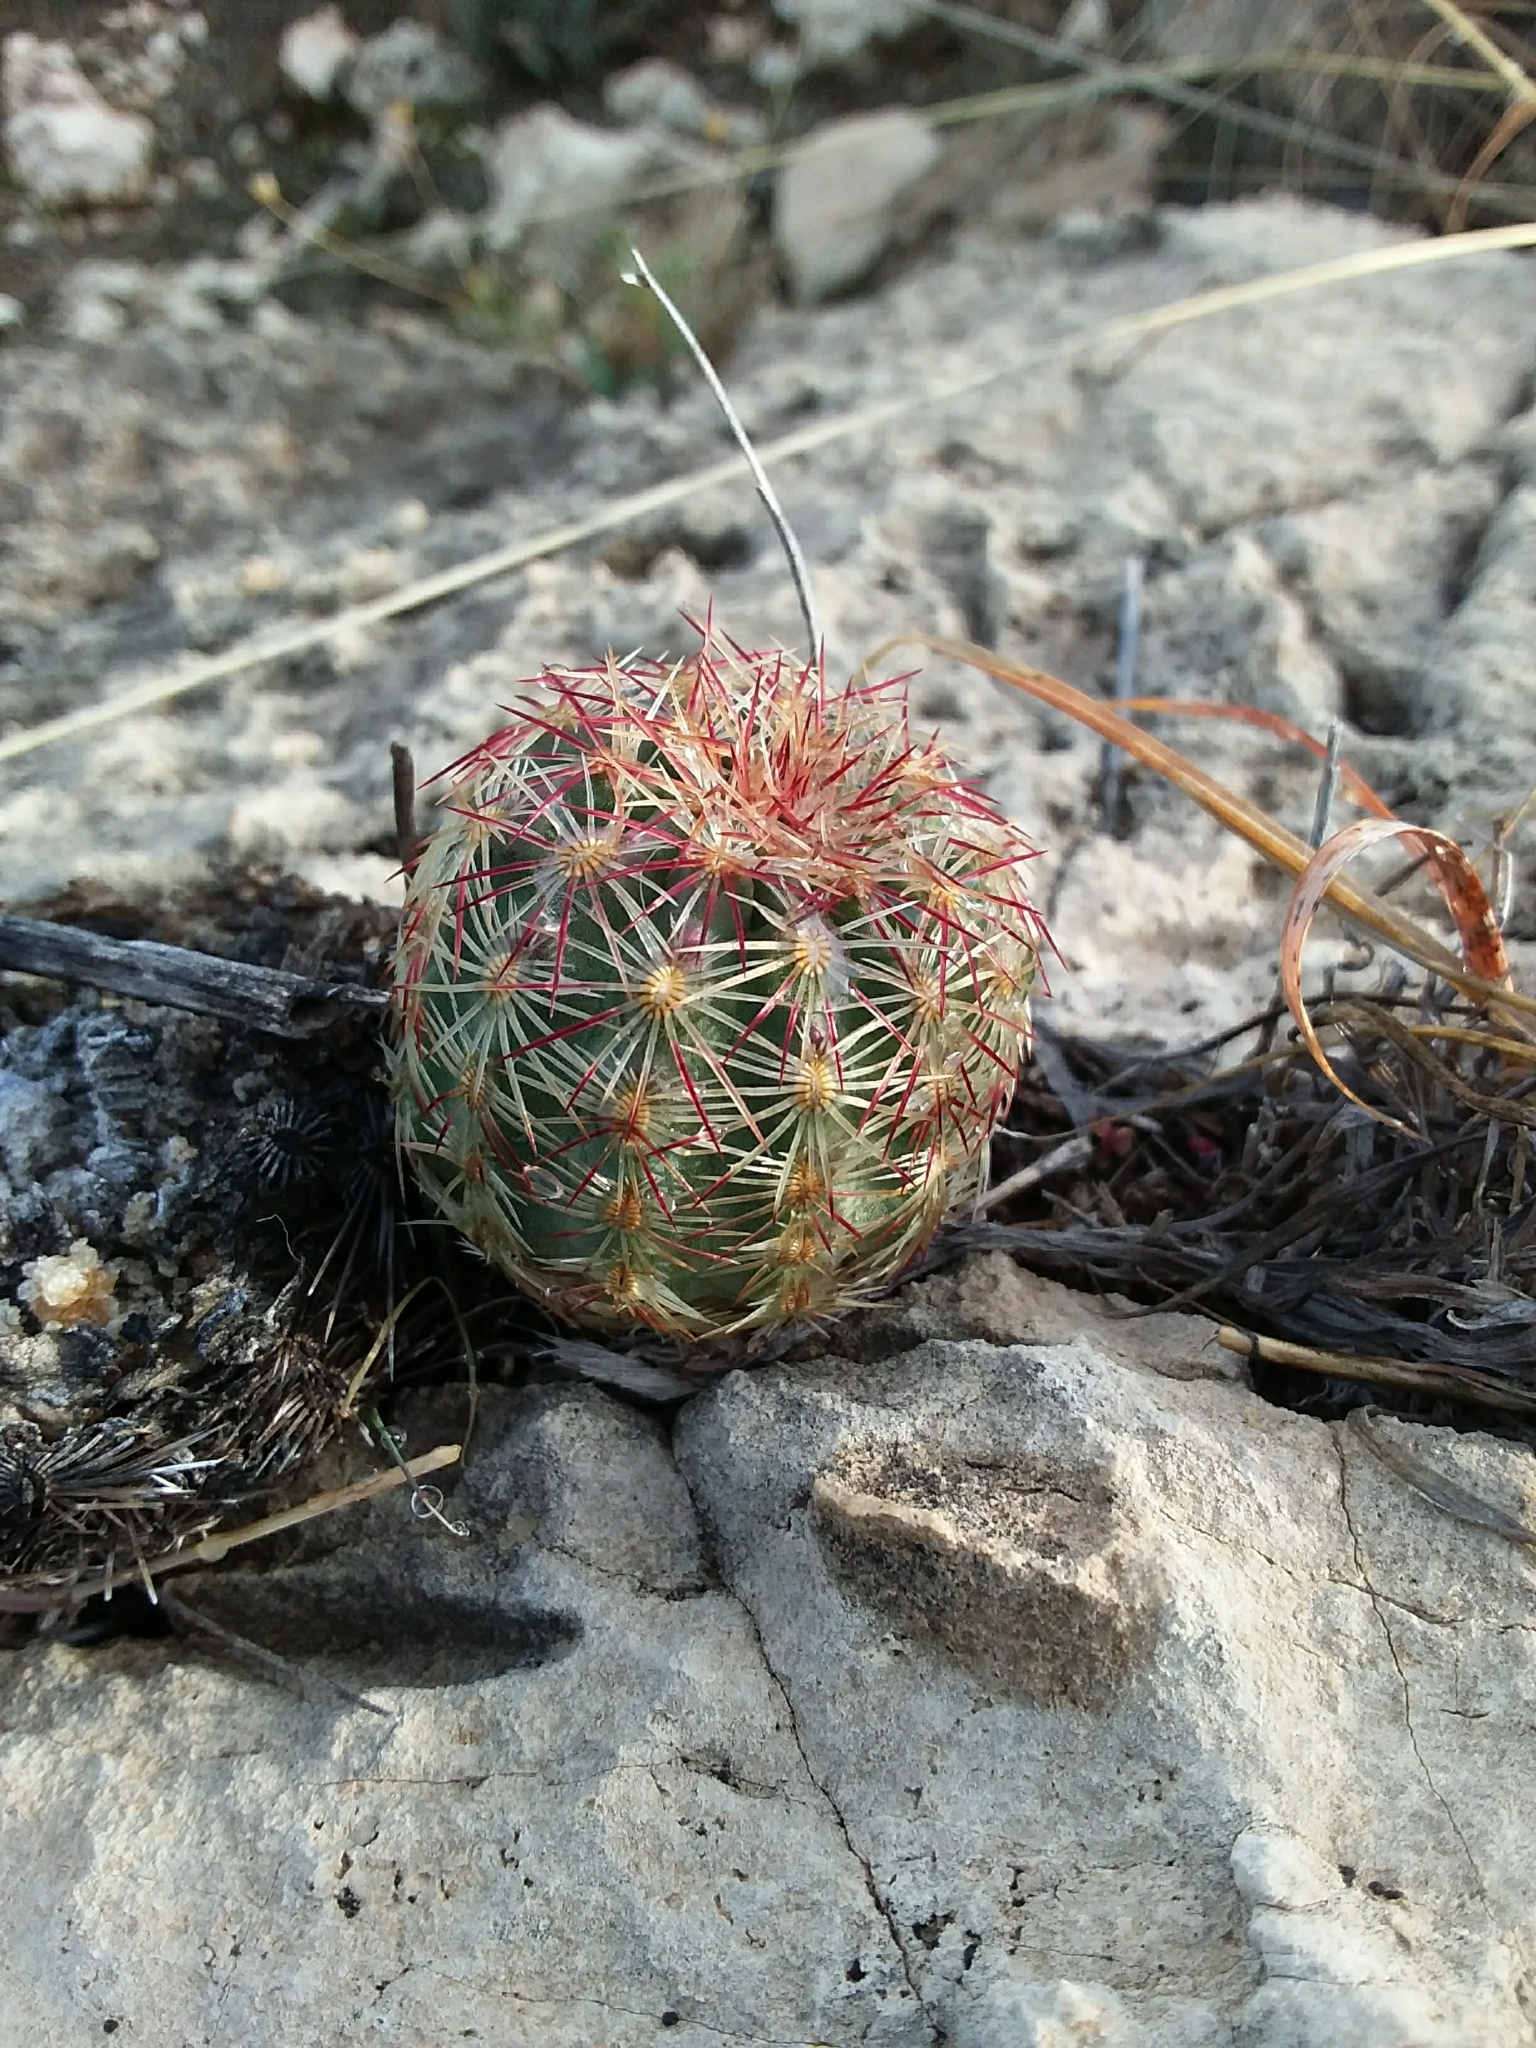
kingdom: Plantae
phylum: Tracheophyta
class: Magnoliopsida
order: Caryophyllales
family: Cactaceae
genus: Echinocereus
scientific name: Echinocereus viridiflorus
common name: Nylon hedgehog cactus
